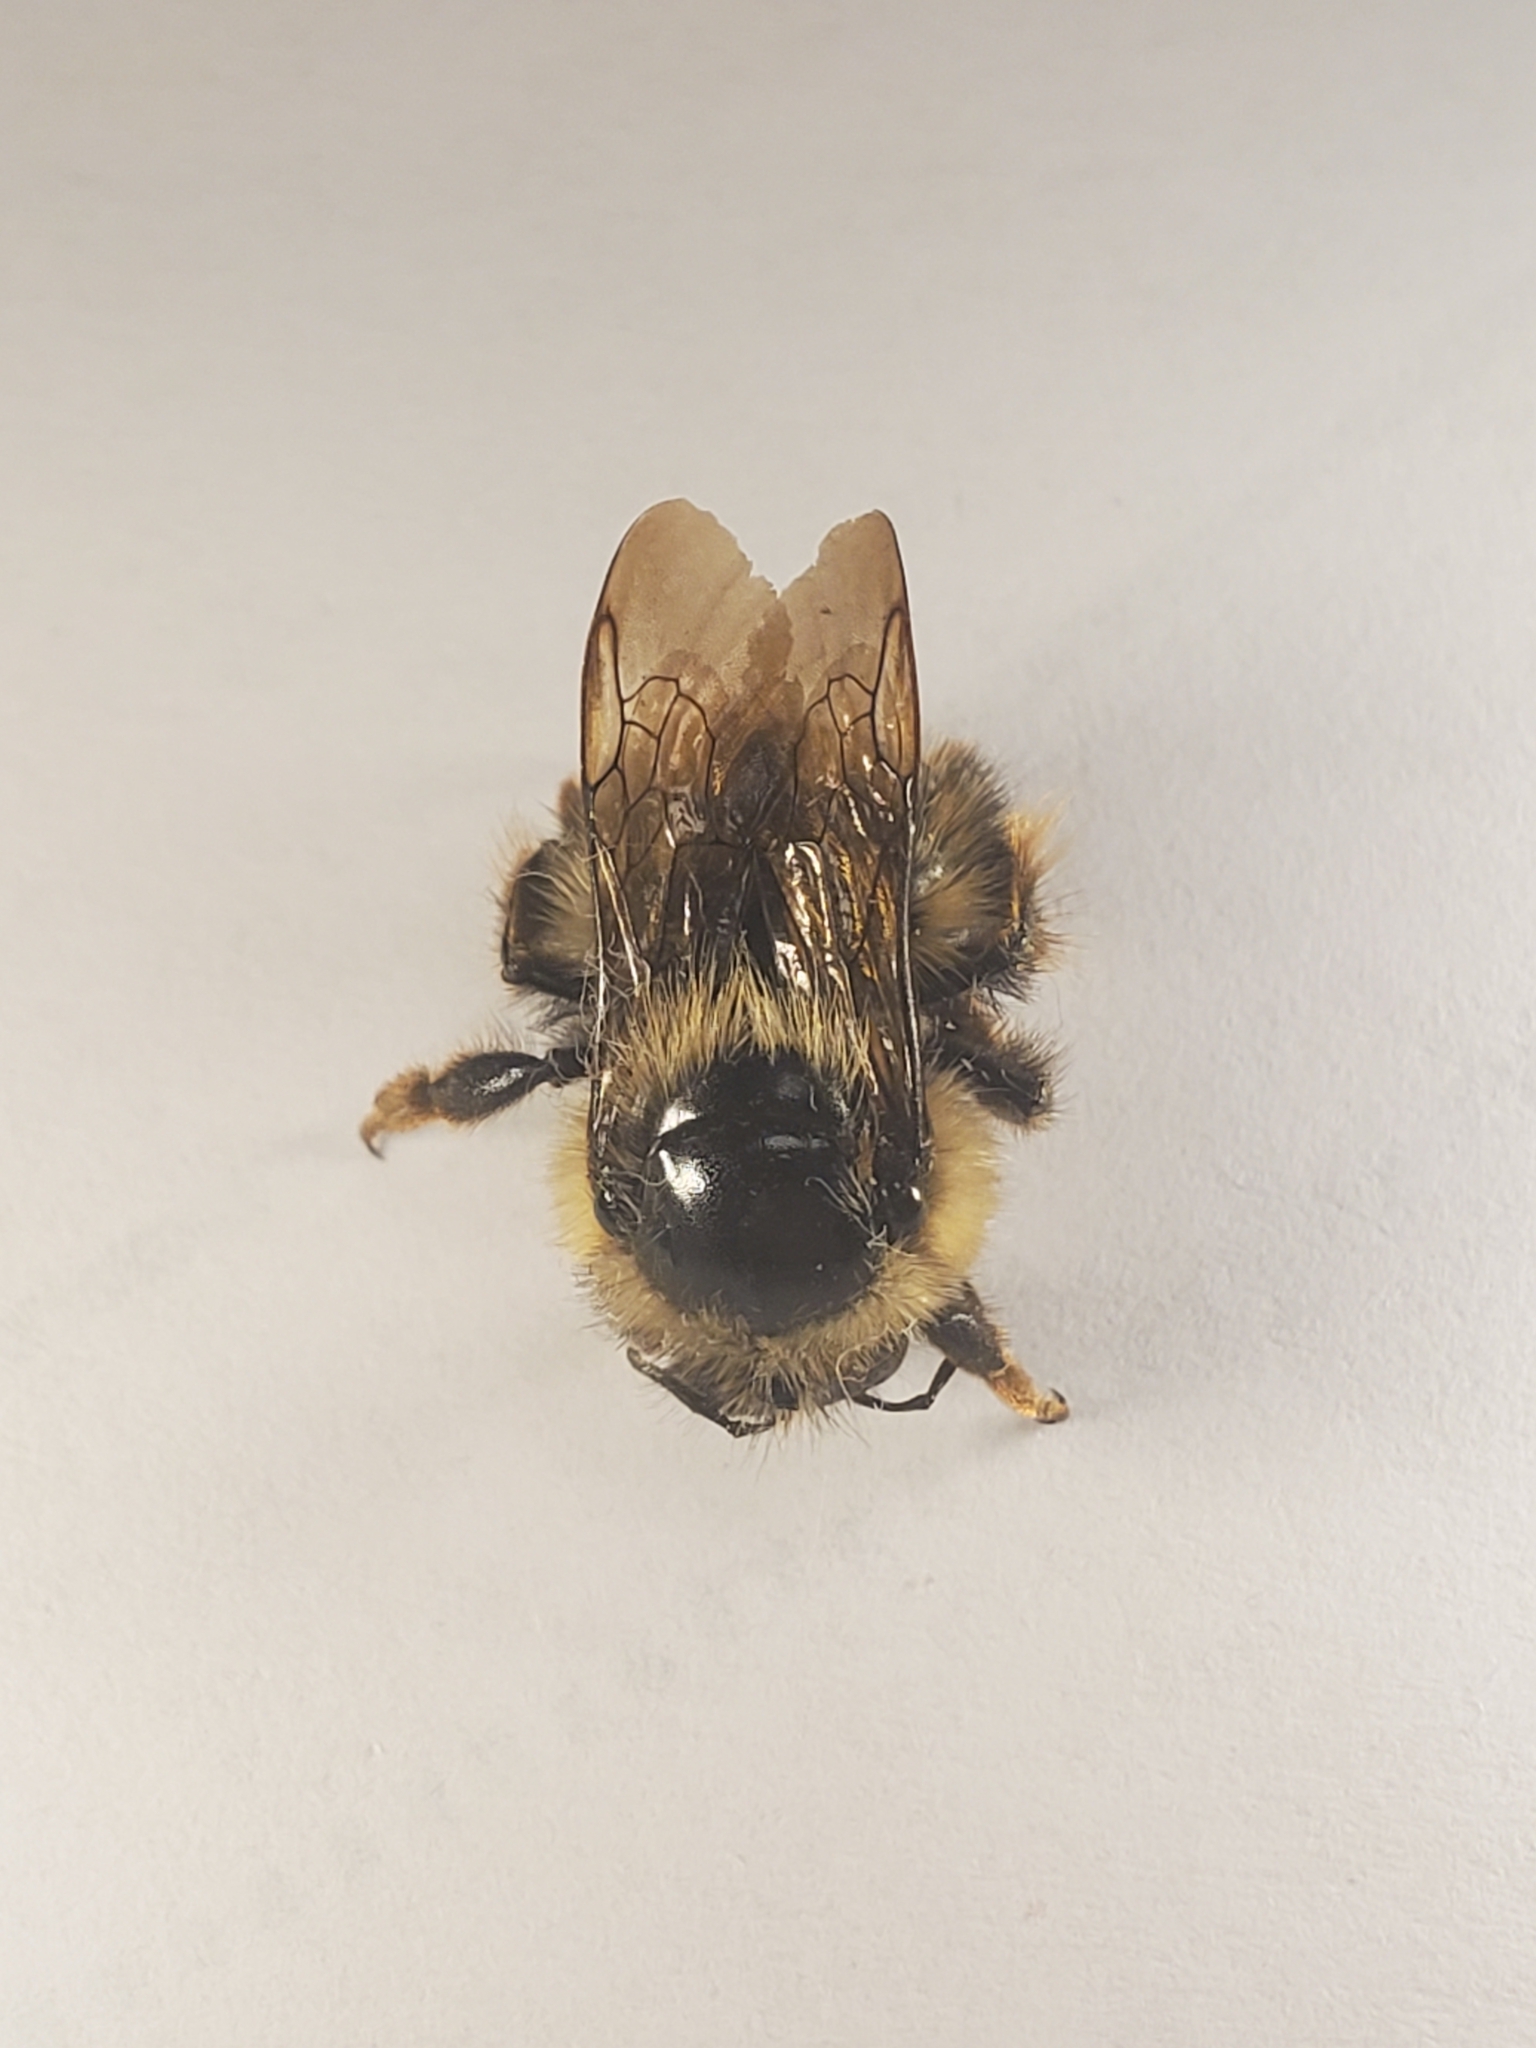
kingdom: Animalia
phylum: Arthropoda
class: Insecta
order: Hymenoptera
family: Apidae
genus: Bombus
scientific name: Bombus mixtus
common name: Fuzzy-horned bumble bee
